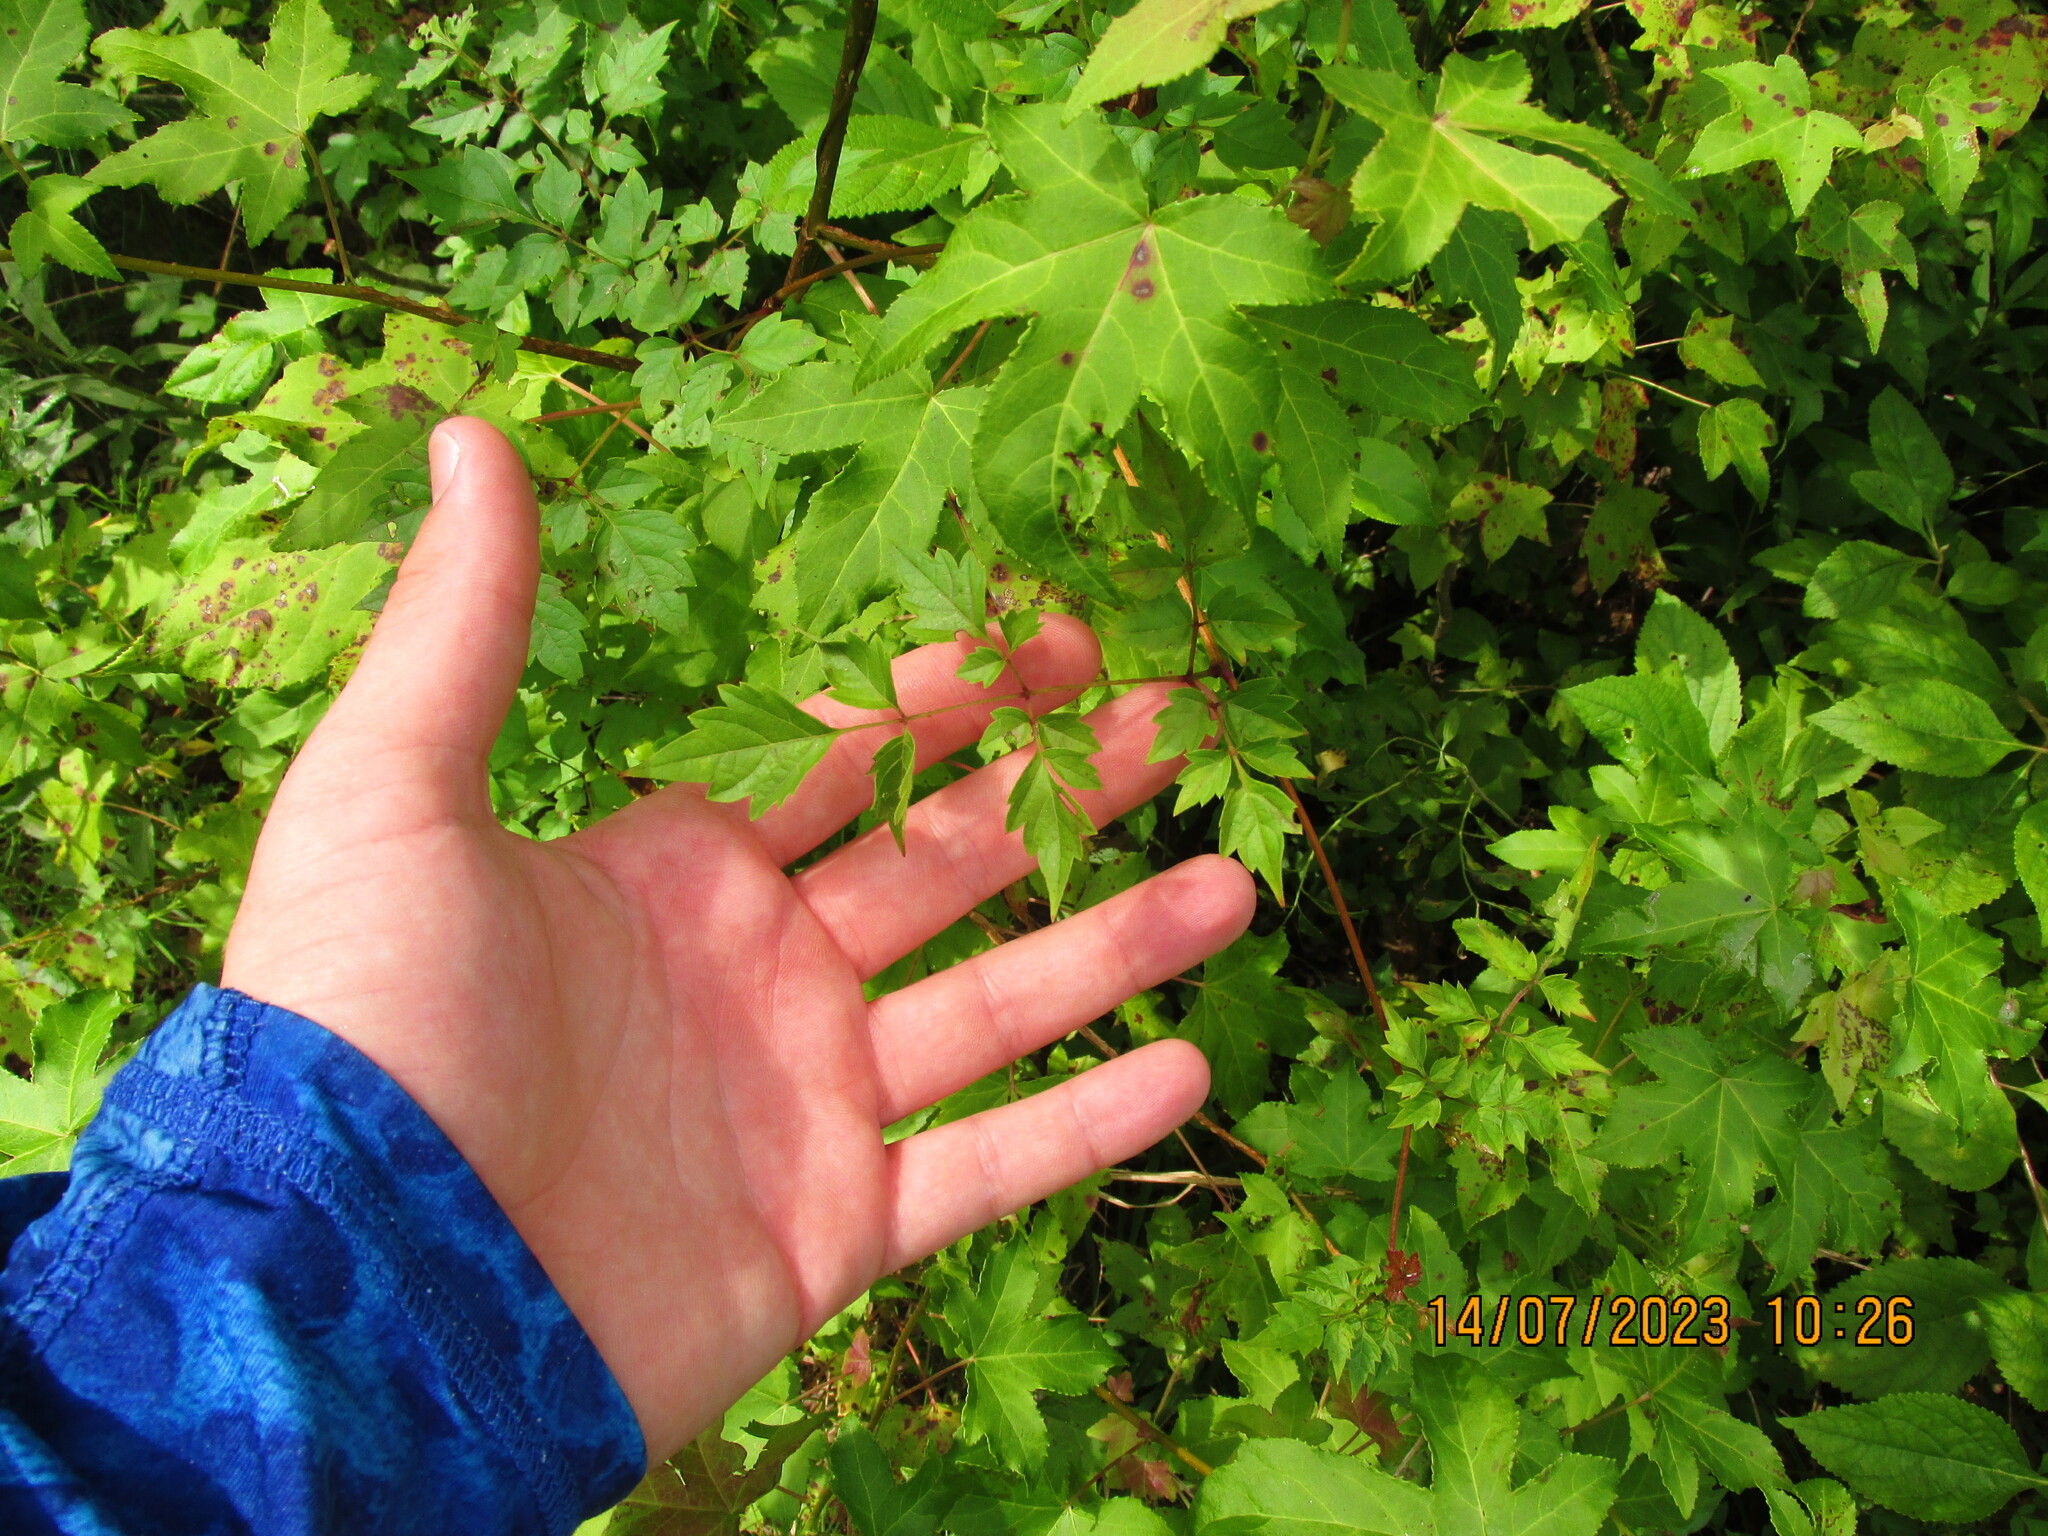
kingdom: Plantae
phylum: Tracheophyta
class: Magnoliopsida
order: Vitales
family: Vitaceae
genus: Nekemias
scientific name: Nekemias arborea
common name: Peppervine
